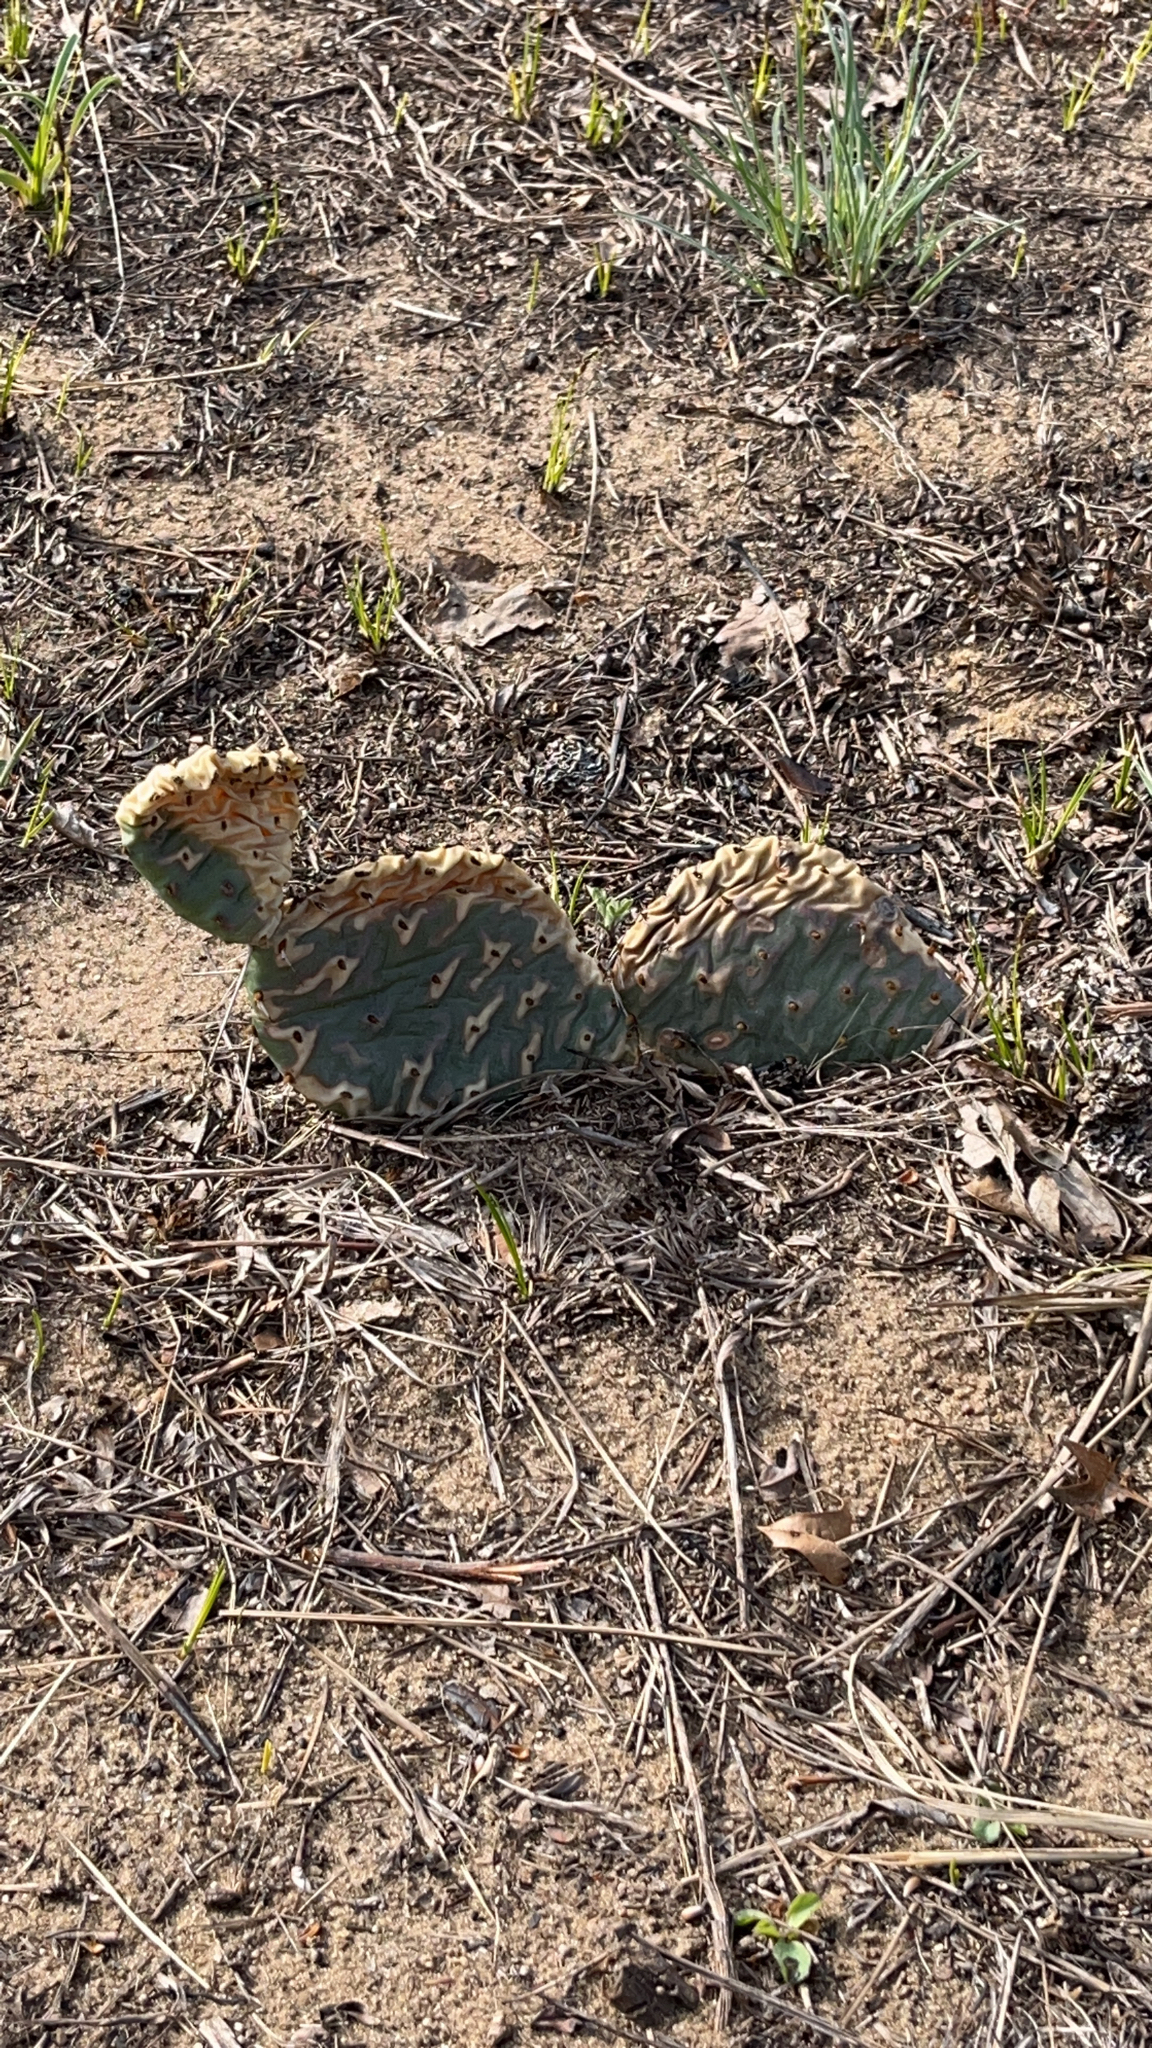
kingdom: Plantae
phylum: Tracheophyta
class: Magnoliopsida
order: Caryophyllales
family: Cactaceae
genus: Opuntia
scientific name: Opuntia
